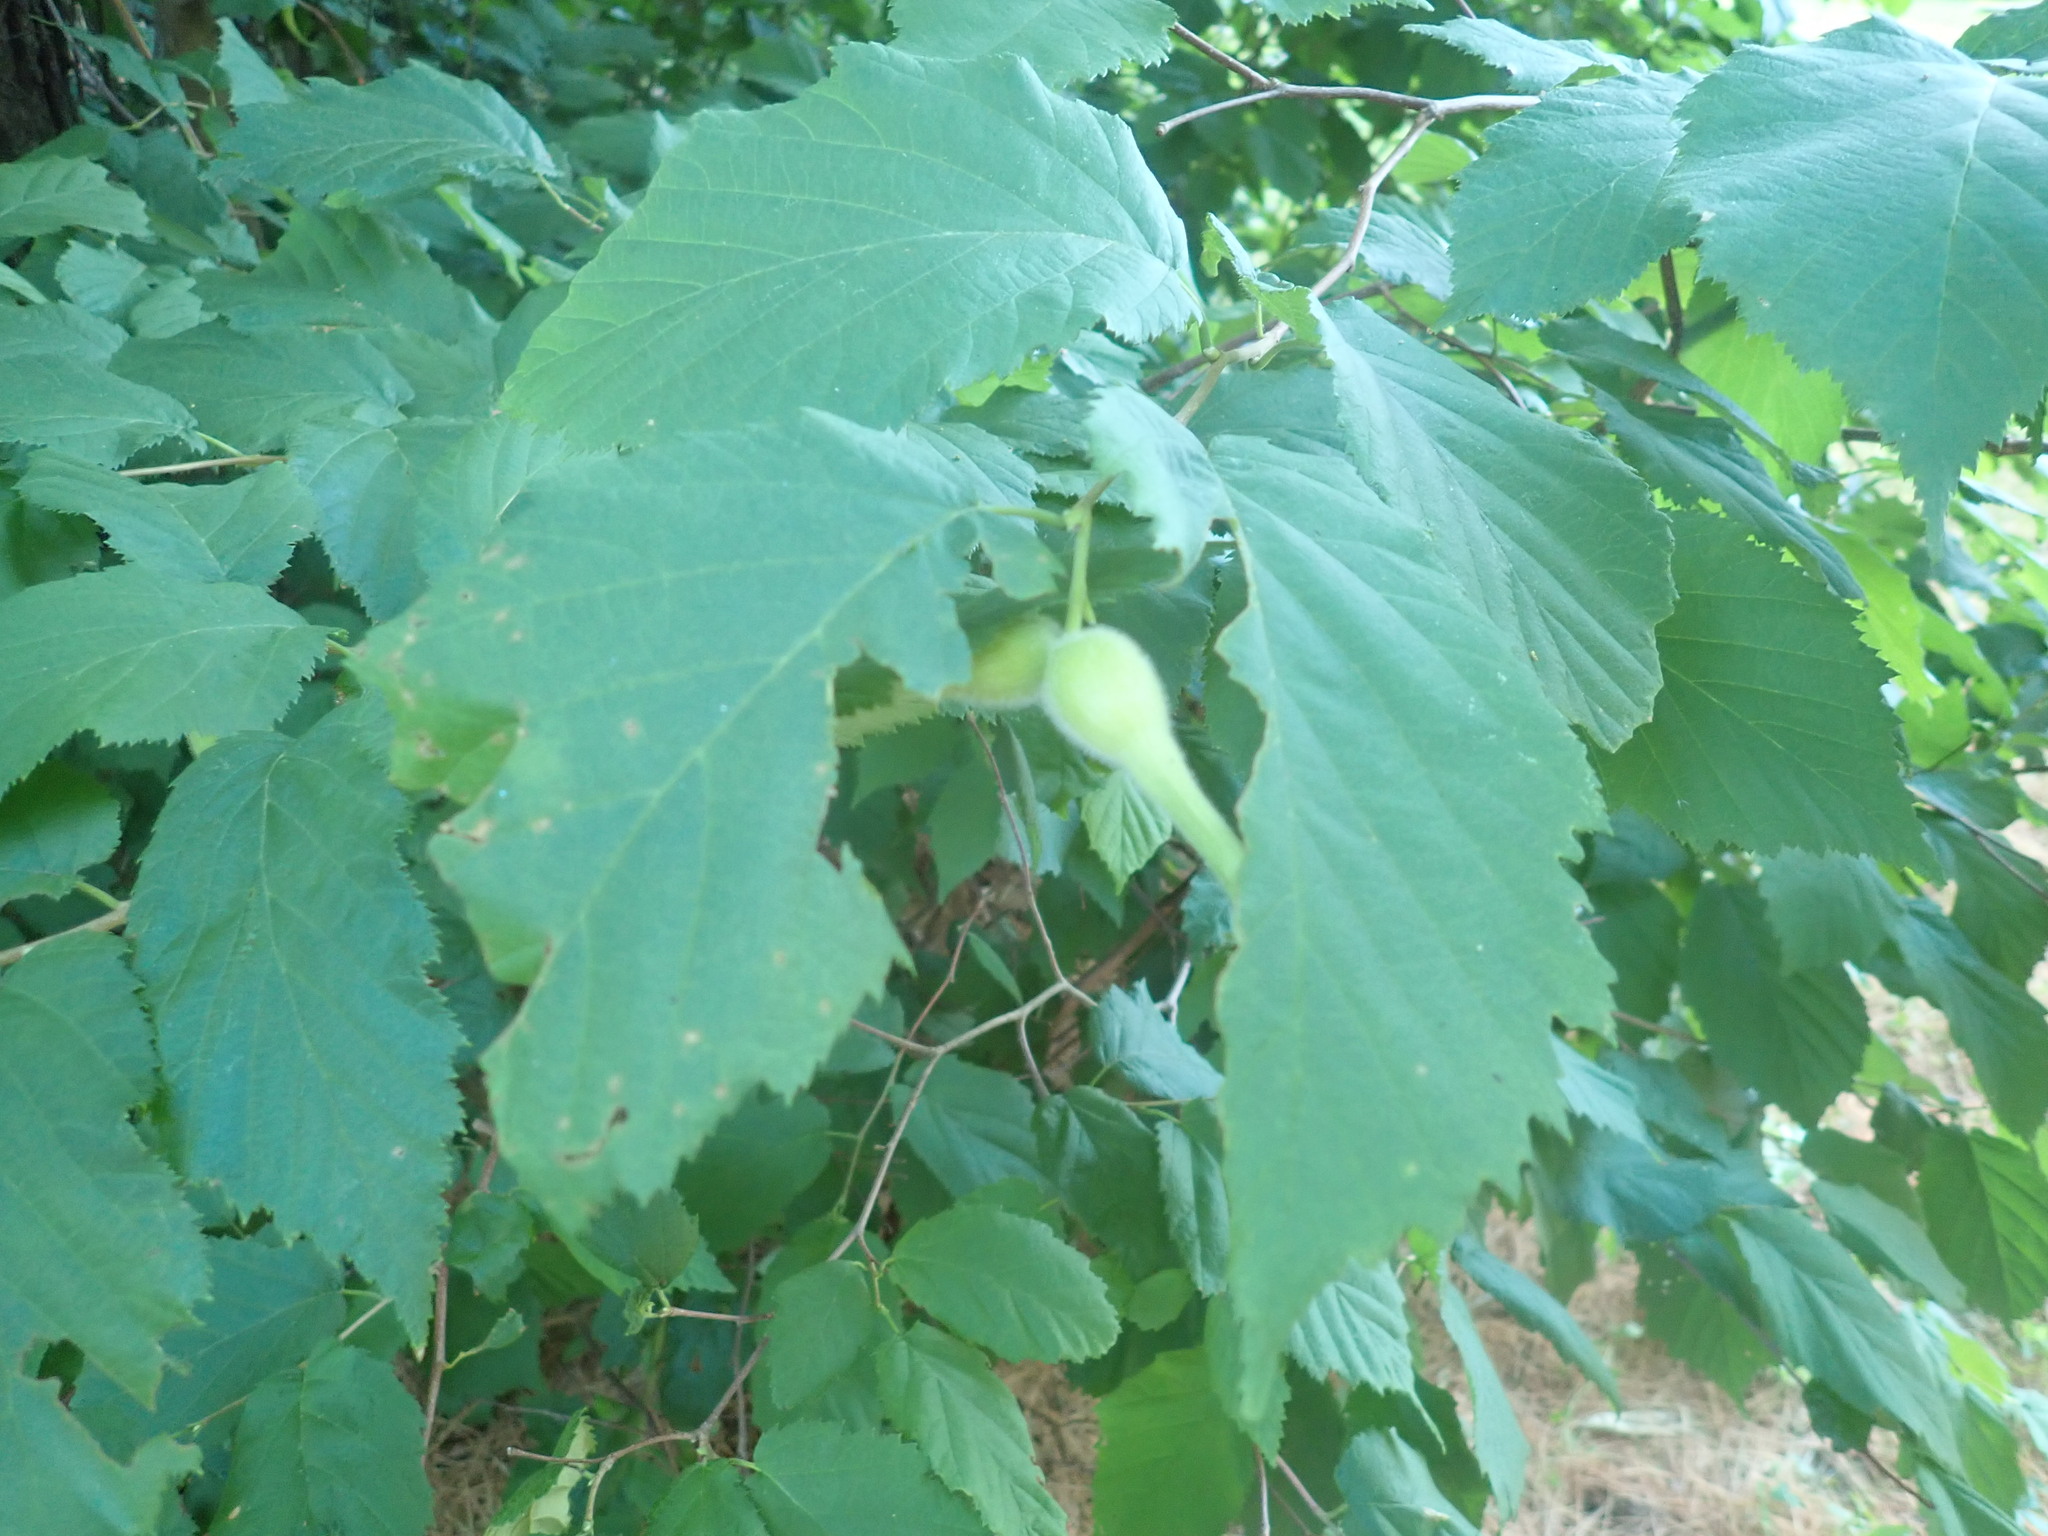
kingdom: Plantae
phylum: Tracheophyta
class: Magnoliopsida
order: Fagales
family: Betulaceae
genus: Corylus
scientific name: Corylus cornuta
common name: Beaked hazel
